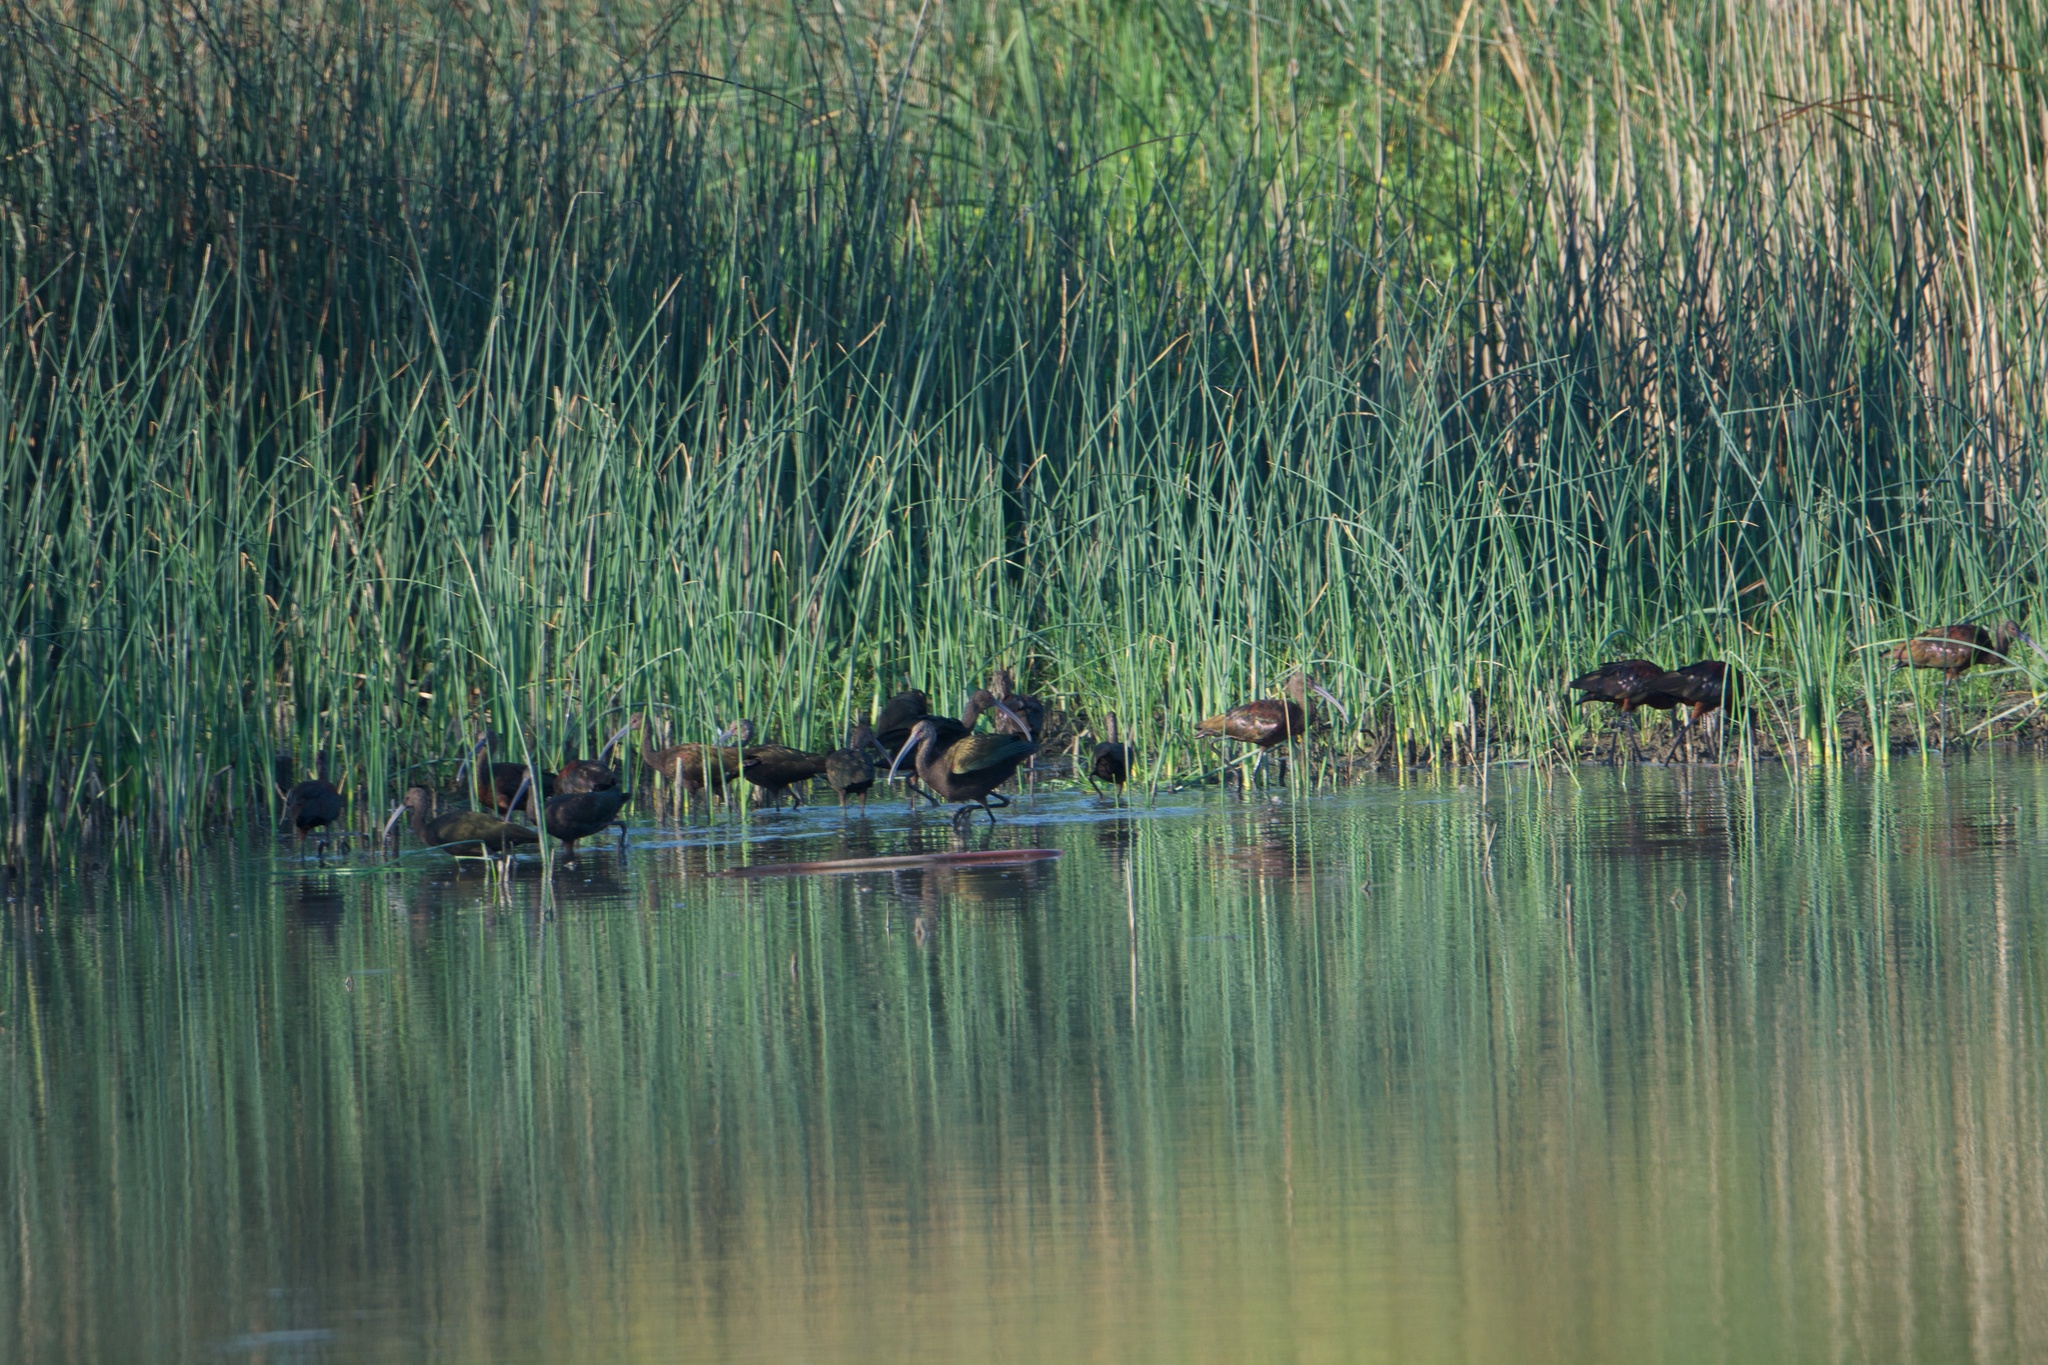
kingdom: Animalia
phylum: Chordata
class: Aves
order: Pelecaniformes
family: Threskiornithidae
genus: Plegadis
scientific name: Plegadis chihi
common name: White-faced ibis
